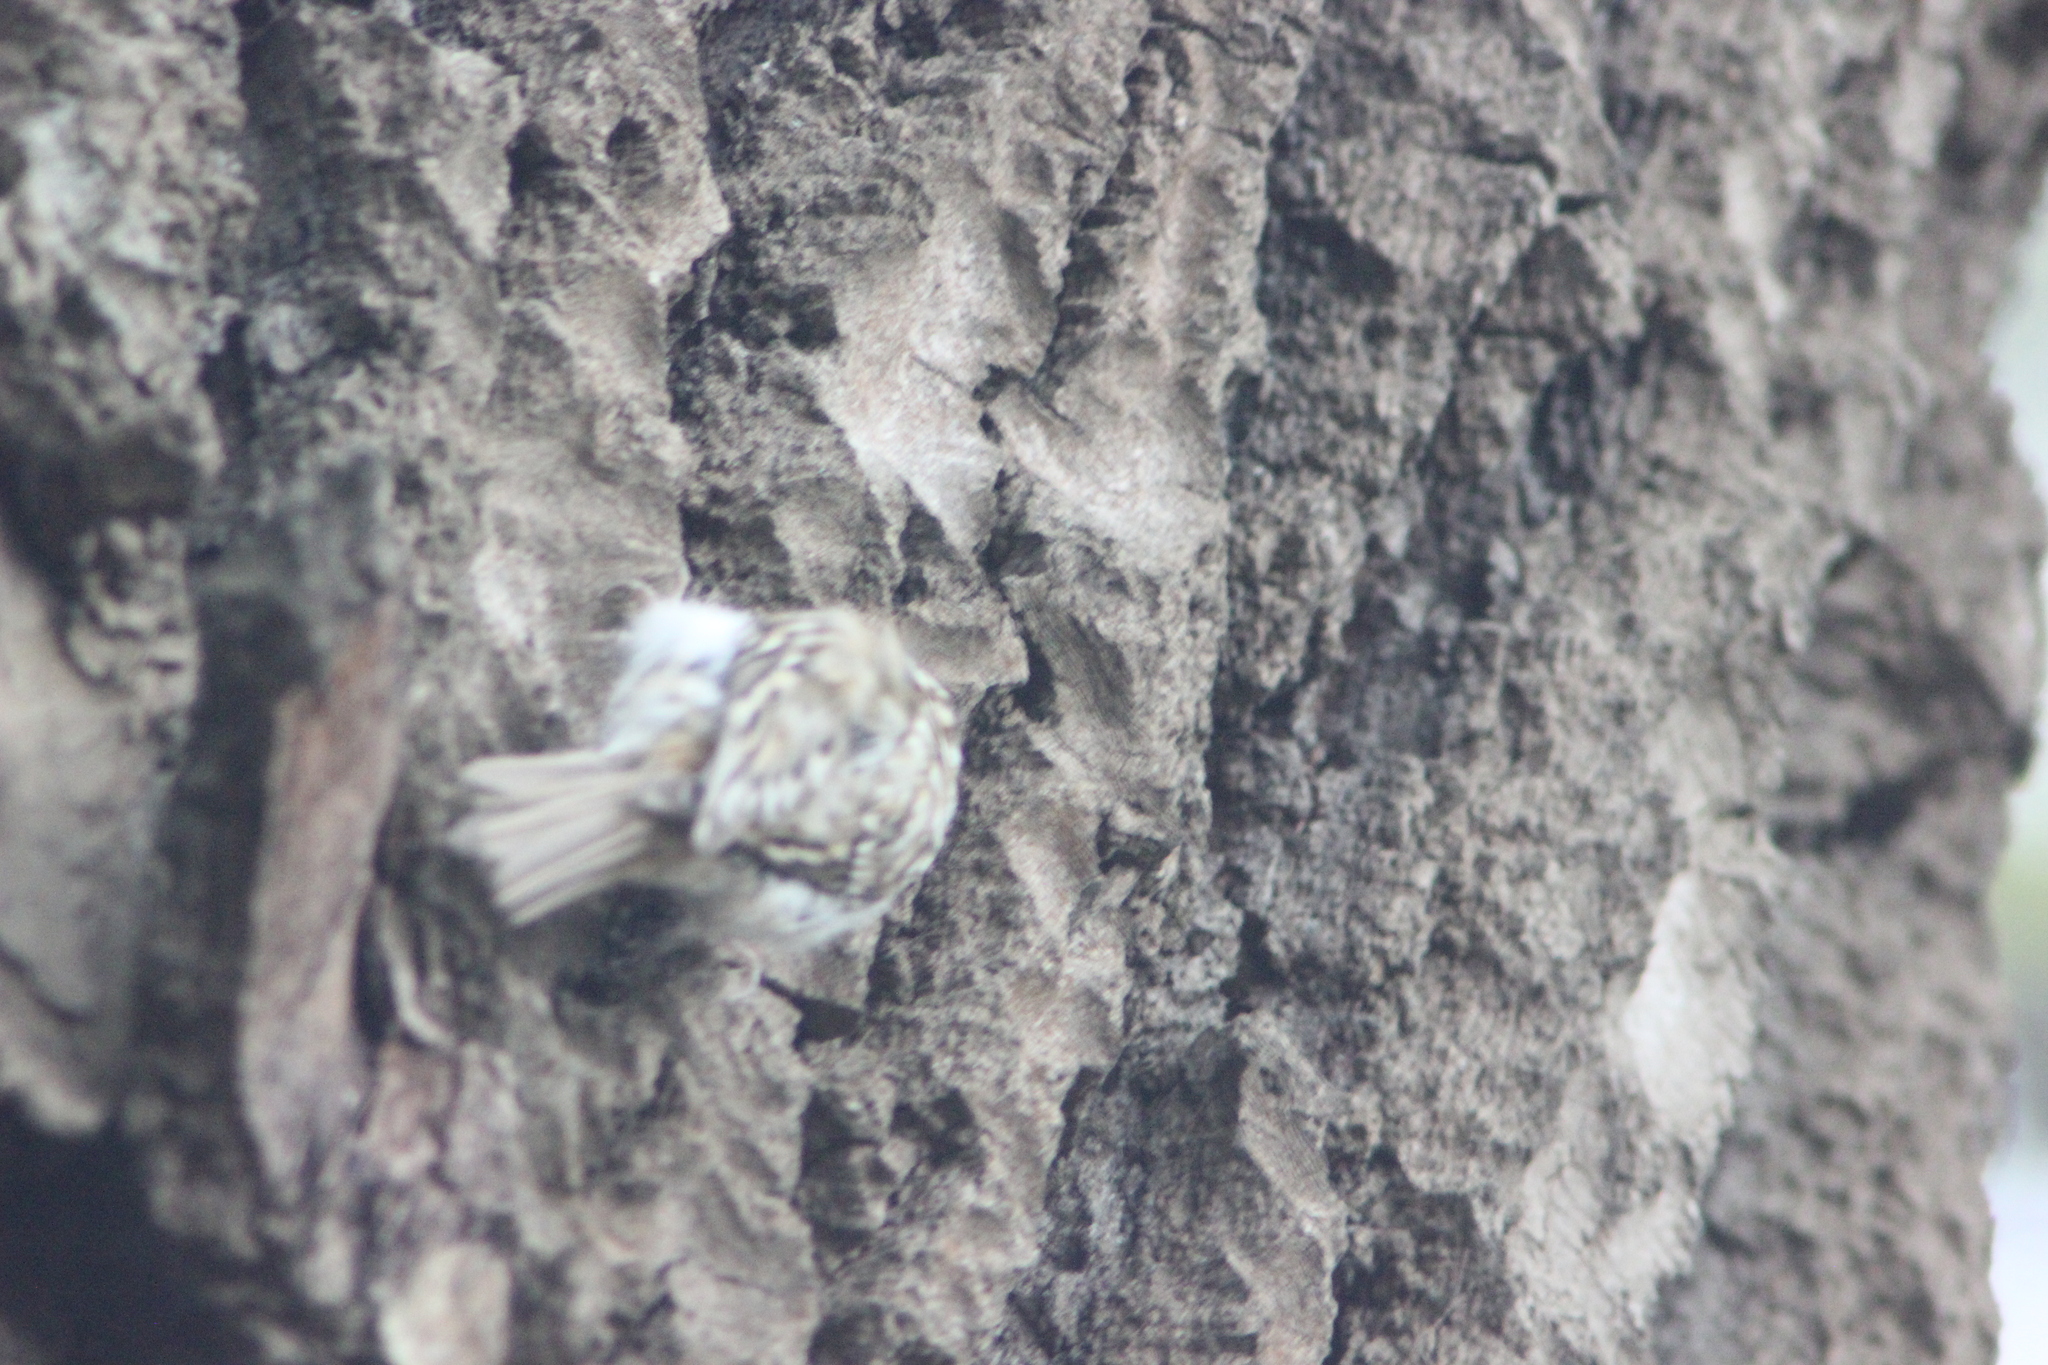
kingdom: Animalia
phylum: Chordata
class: Aves
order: Passeriformes
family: Certhiidae
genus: Certhia
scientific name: Certhia familiaris
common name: Eurasian treecreeper
